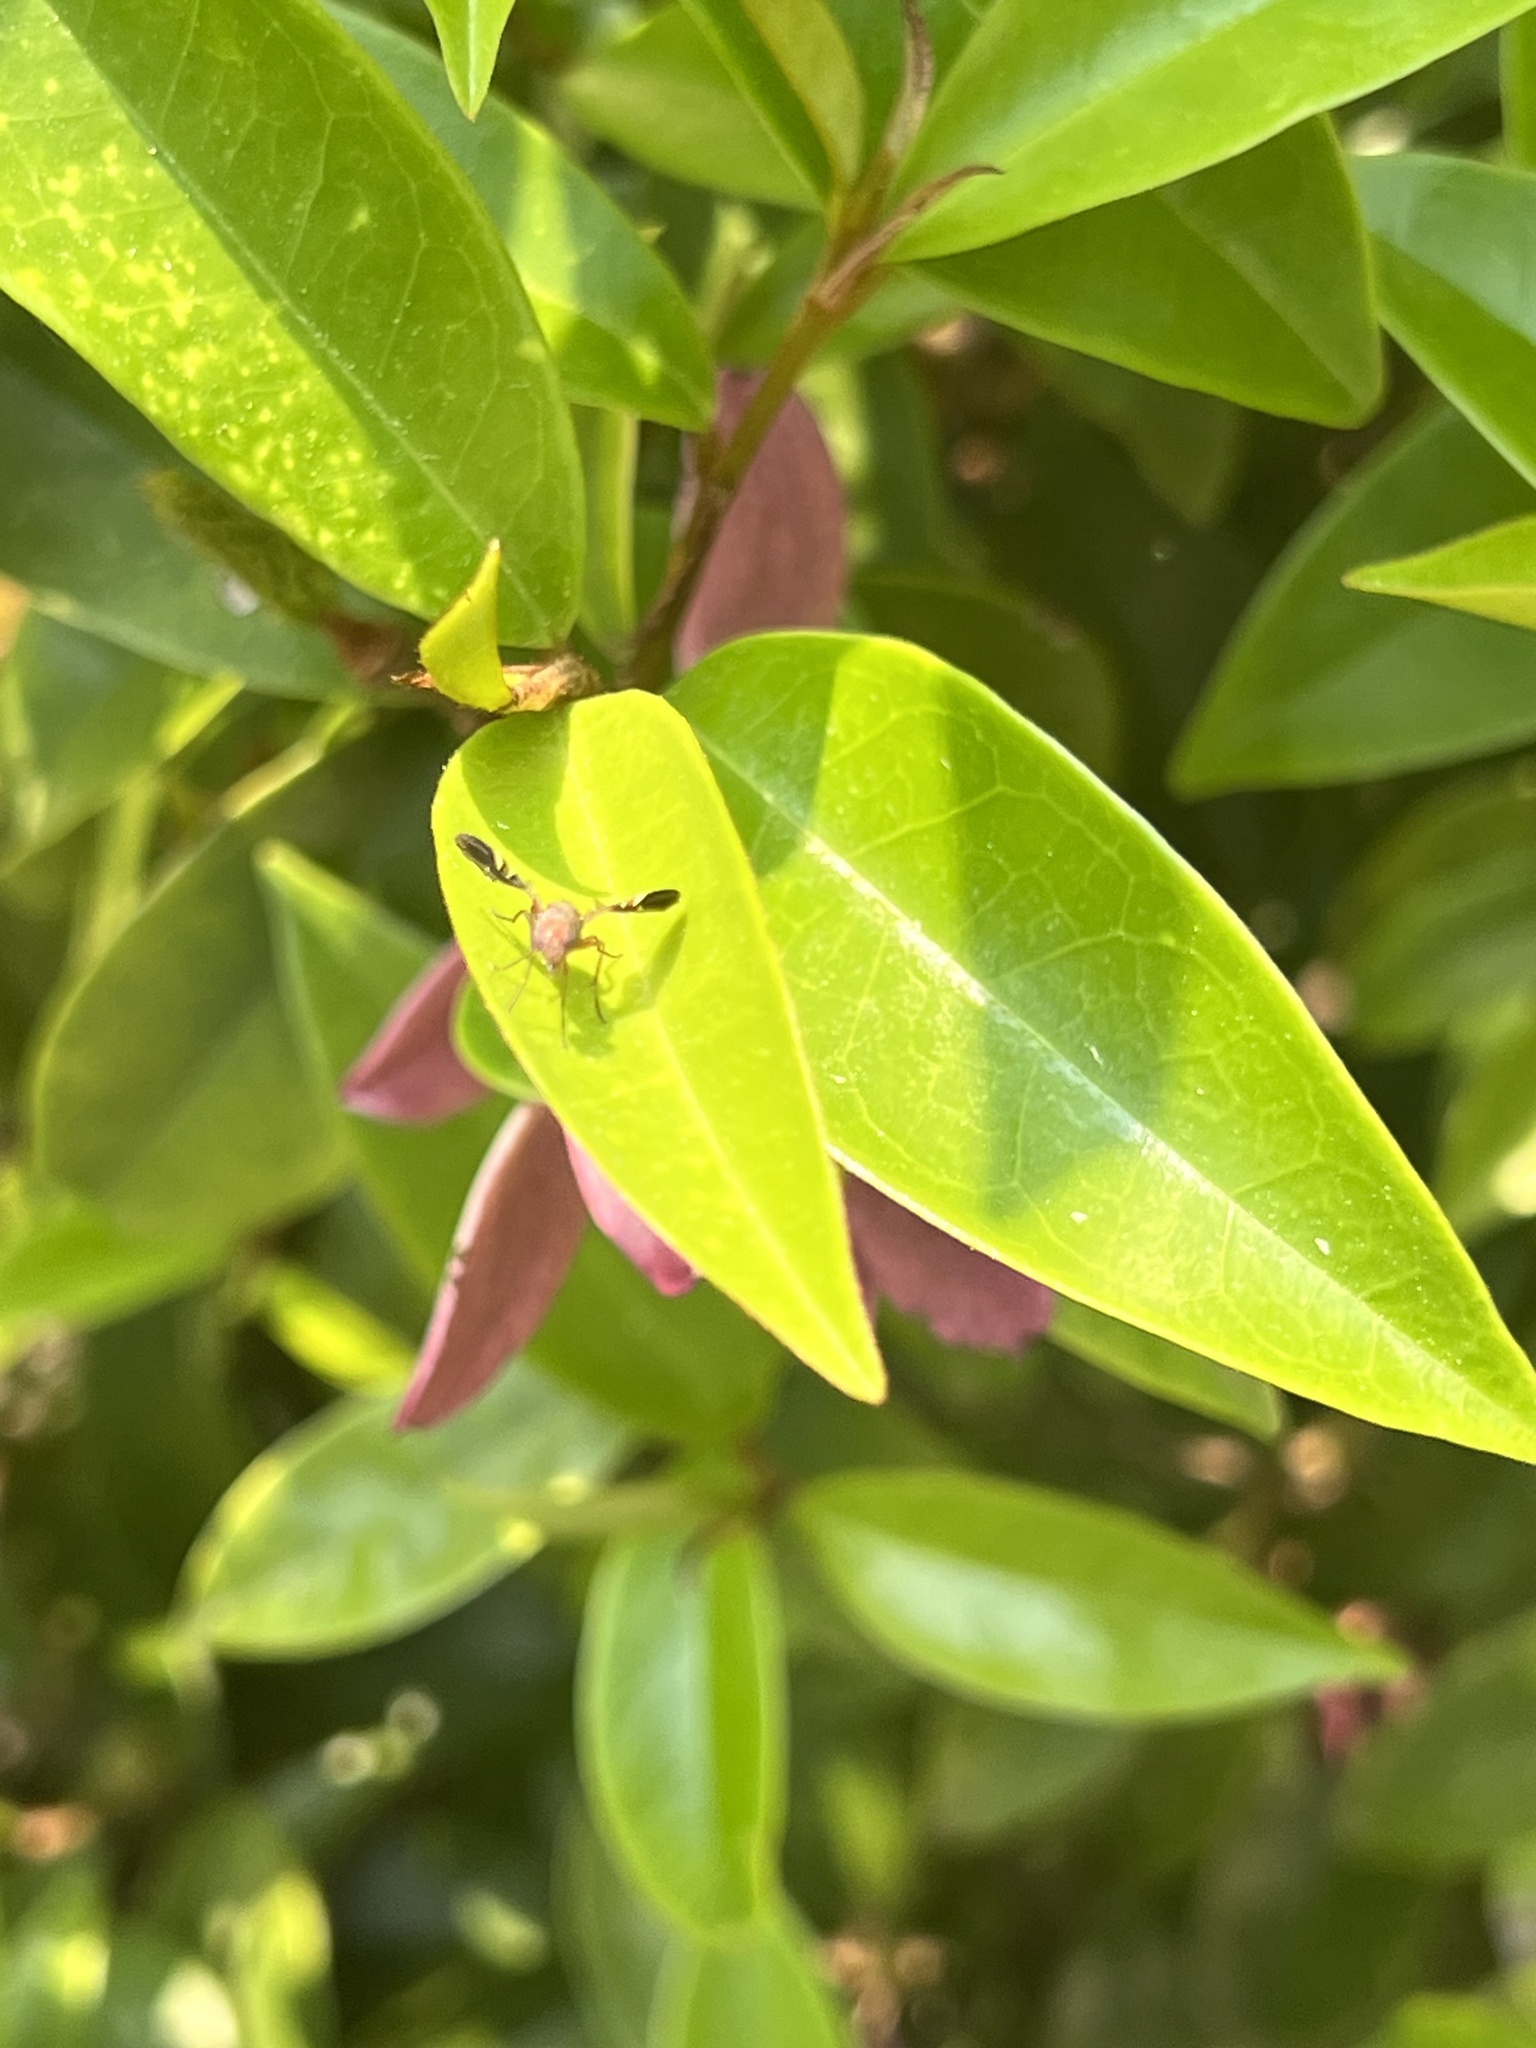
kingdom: Animalia
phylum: Arthropoda
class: Insecta
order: Diptera
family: Ulidiidae
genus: Delphinia
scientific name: Delphinia picta
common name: Common picture-winged fly
